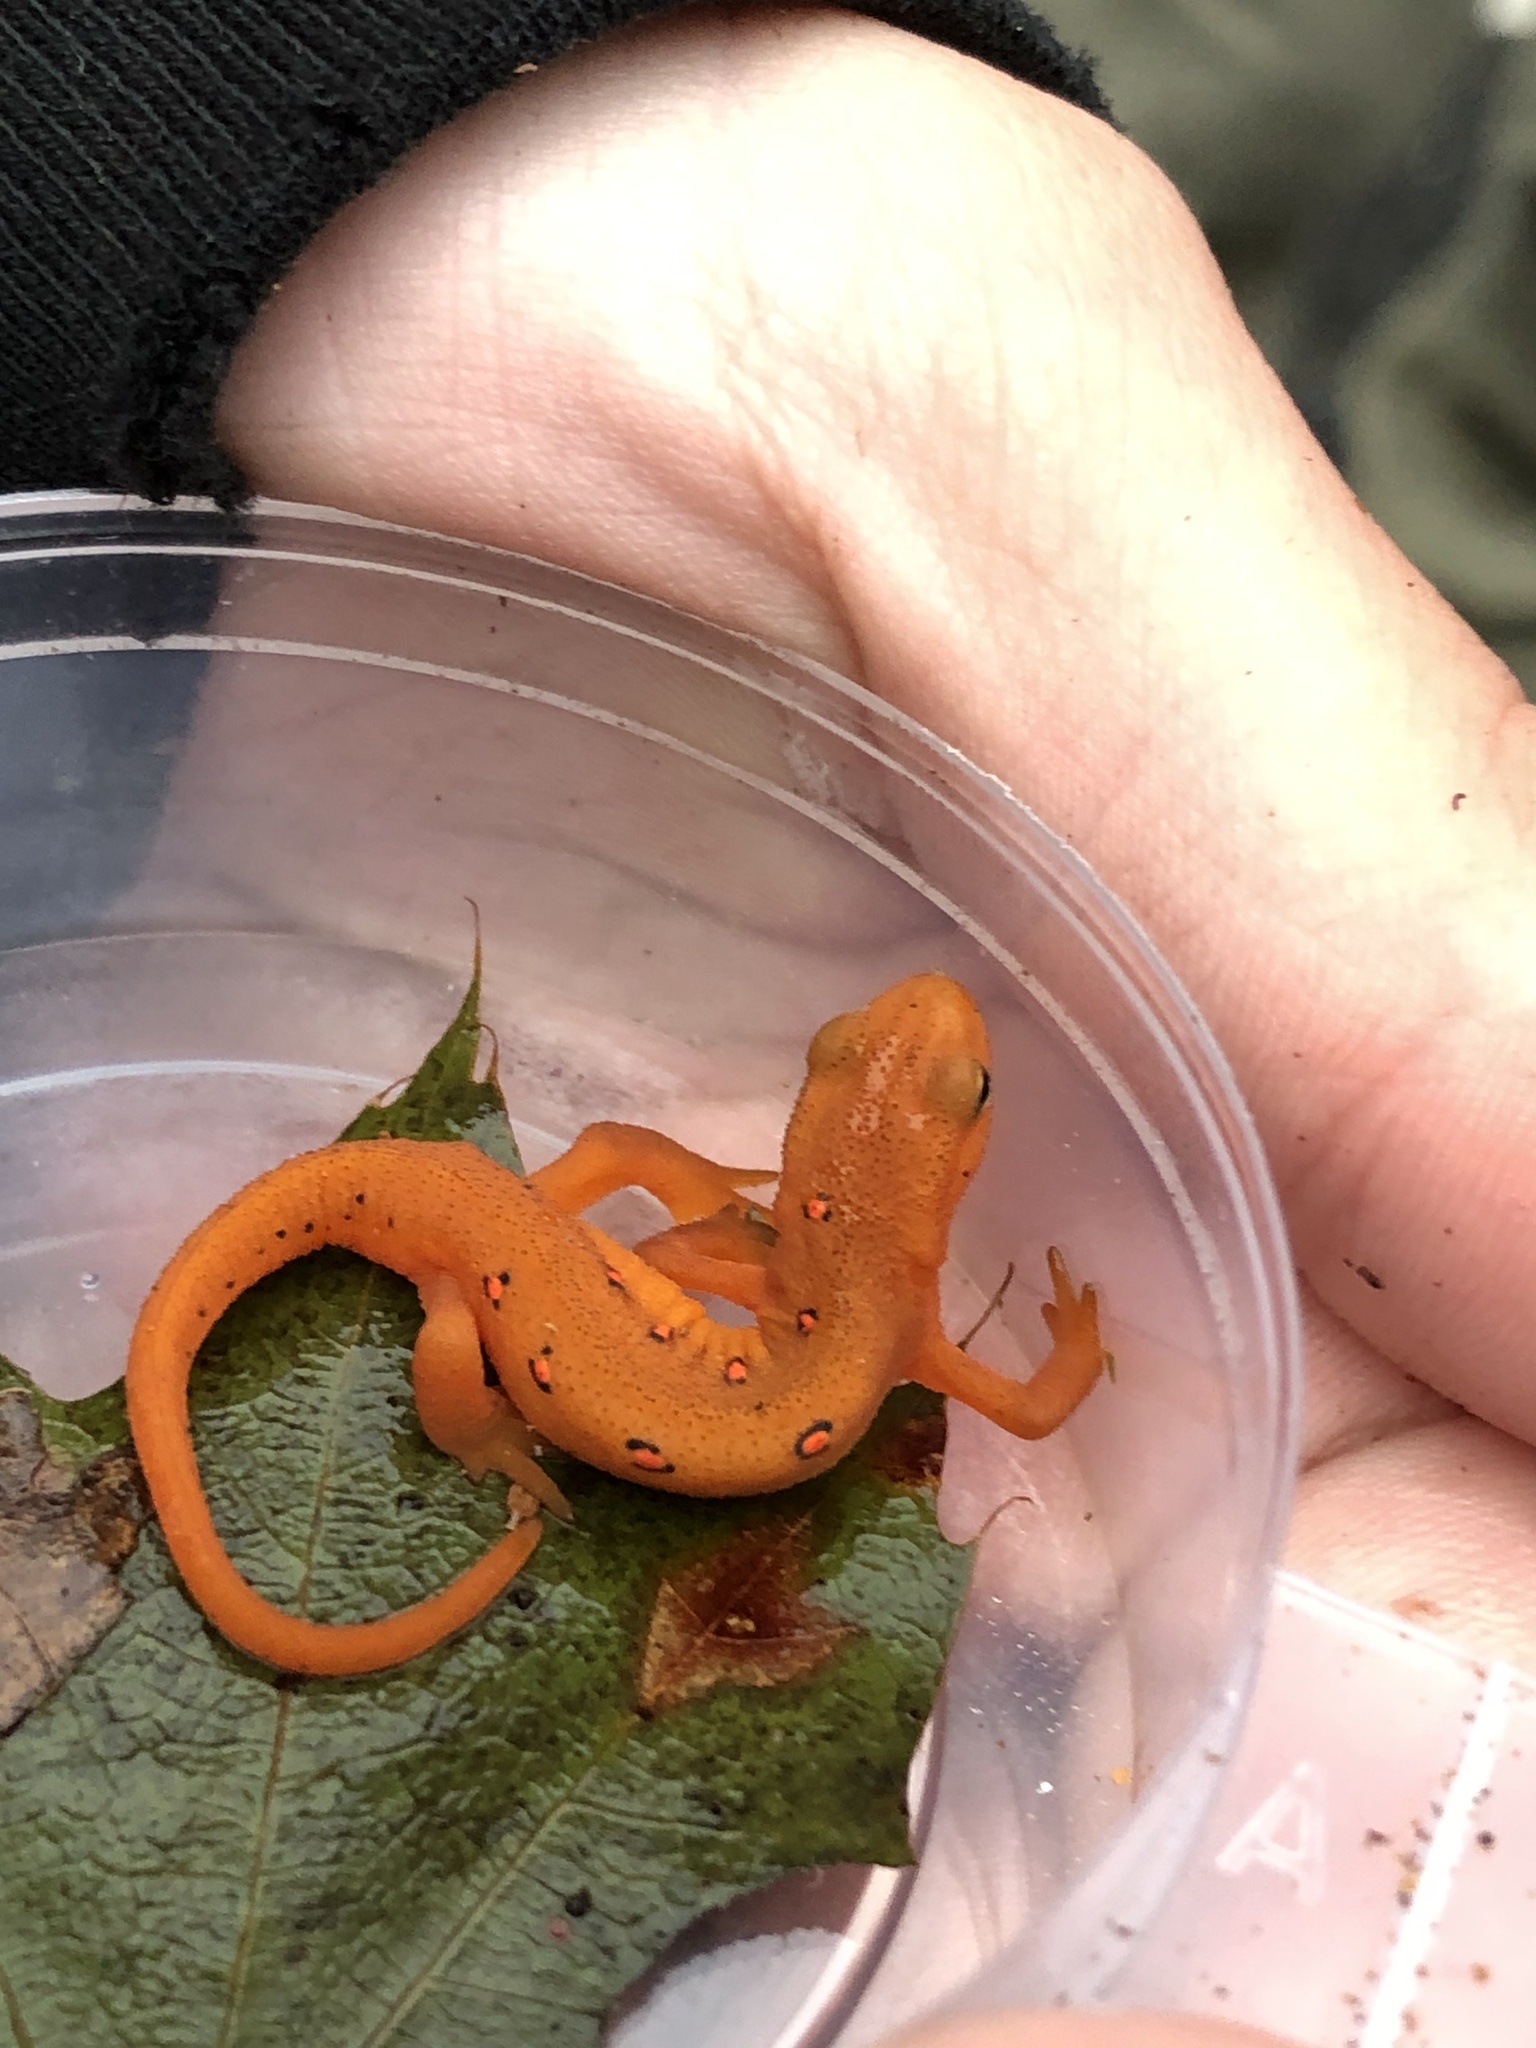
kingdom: Animalia
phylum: Chordata
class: Amphibia
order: Caudata
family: Salamandridae
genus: Notophthalmus
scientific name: Notophthalmus viridescens
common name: Eastern newt
